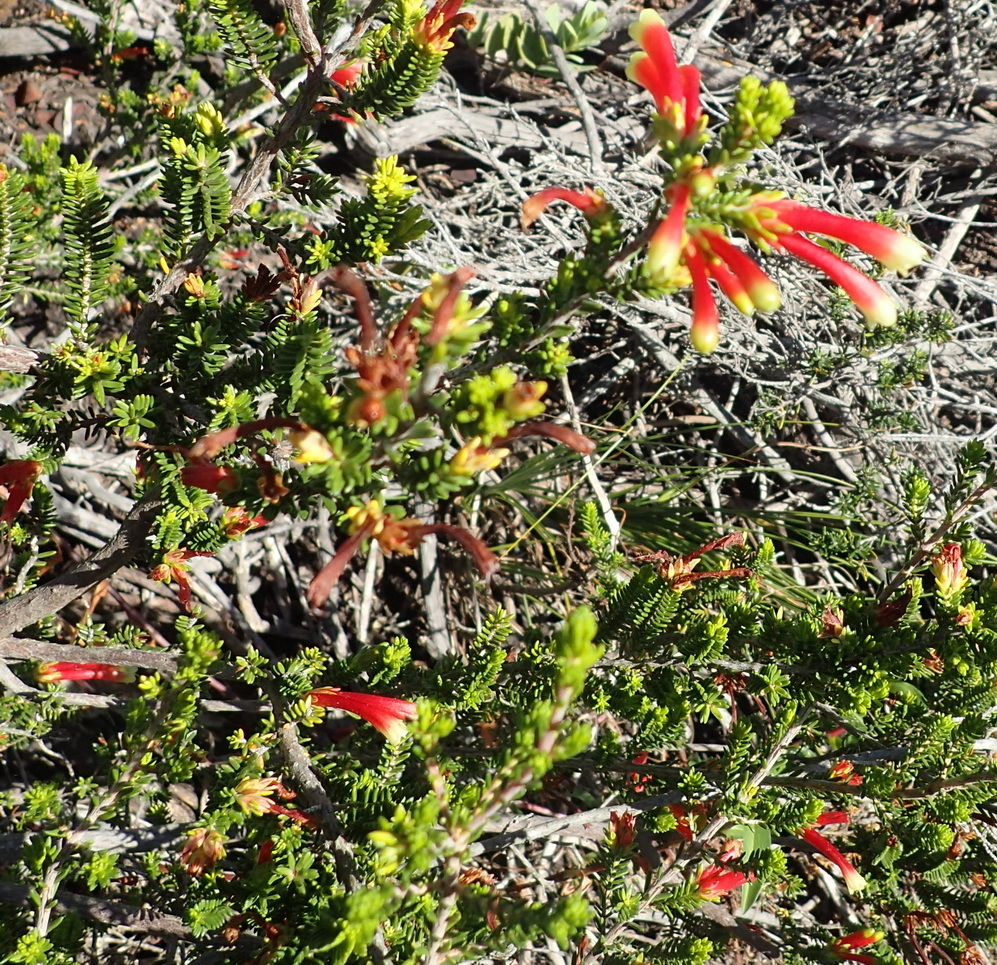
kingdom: Plantae
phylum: Tracheophyta
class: Magnoliopsida
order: Ericales
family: Ericaceae
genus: Erica
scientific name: Erica discolor
